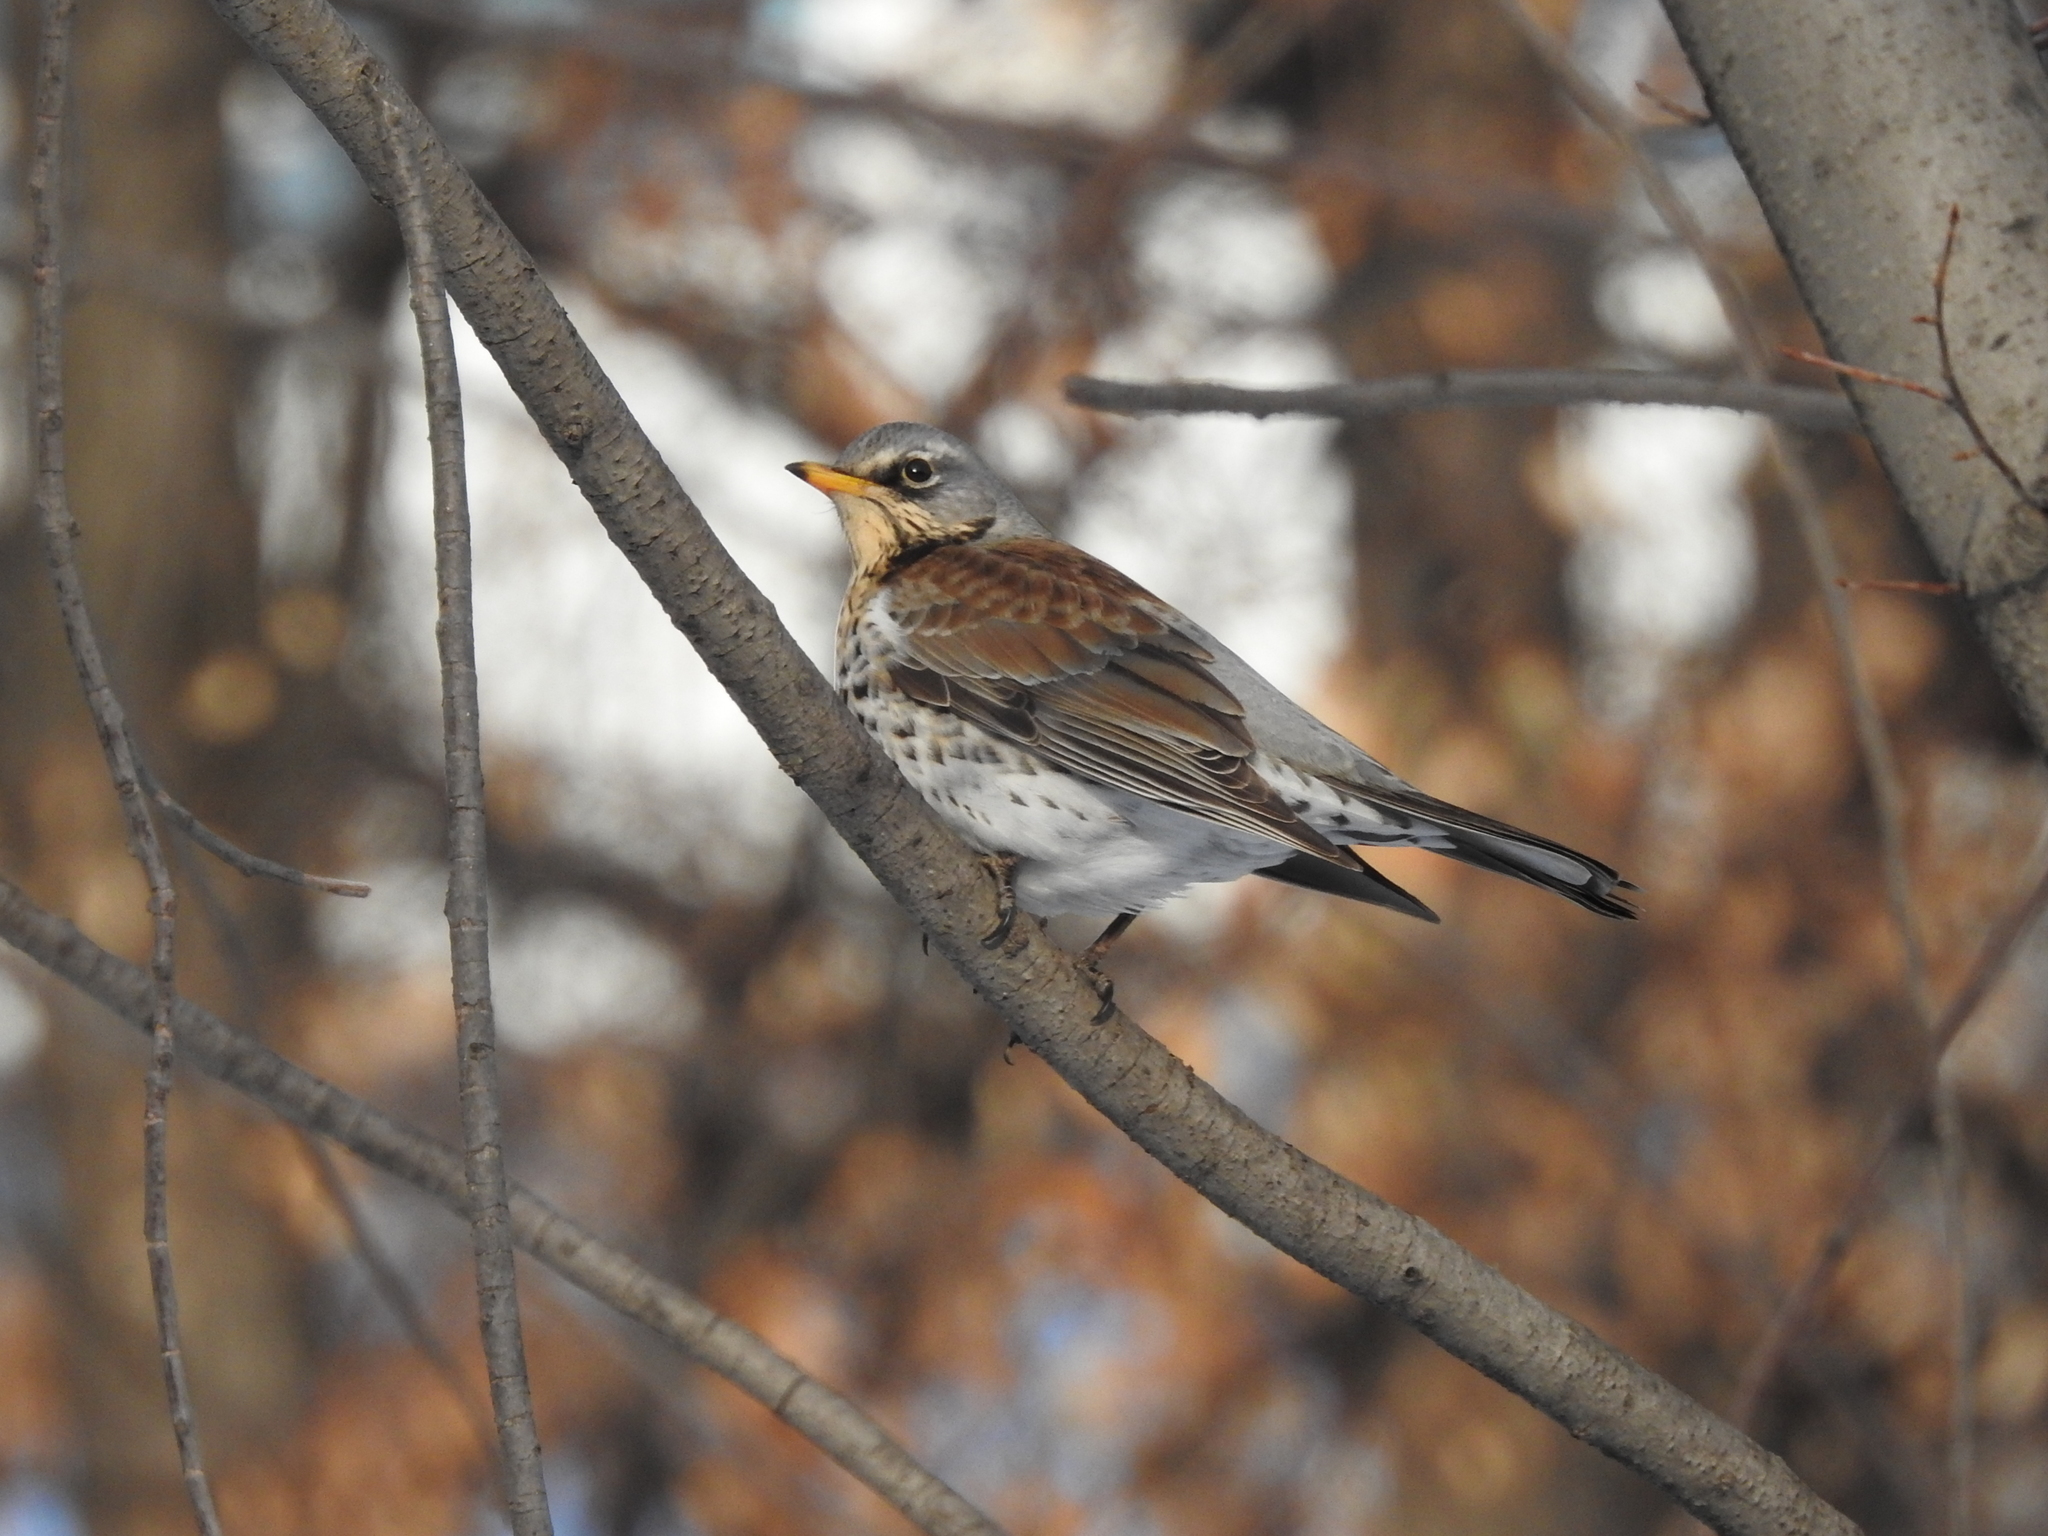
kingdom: Animalia
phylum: Chordata
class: Aves
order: Passeriformes
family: Turdidae
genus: Turdus
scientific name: Turdus pilaris
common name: Fieldfare
